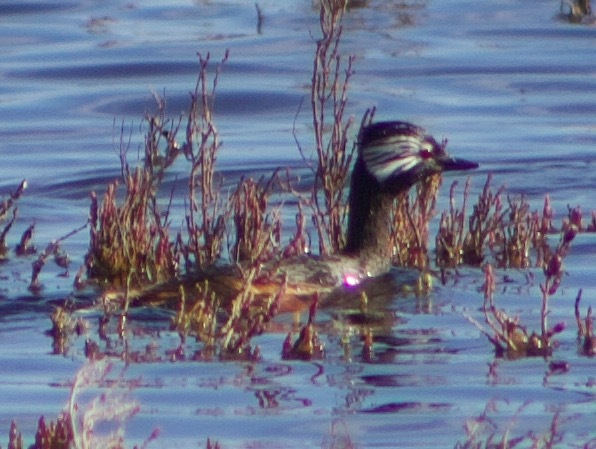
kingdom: Animalia
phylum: Chordata
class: Aves
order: Podicipediformes
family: Podicipedidae
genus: Rollandia
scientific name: Rollandia rolland
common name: White-tufted grebe
